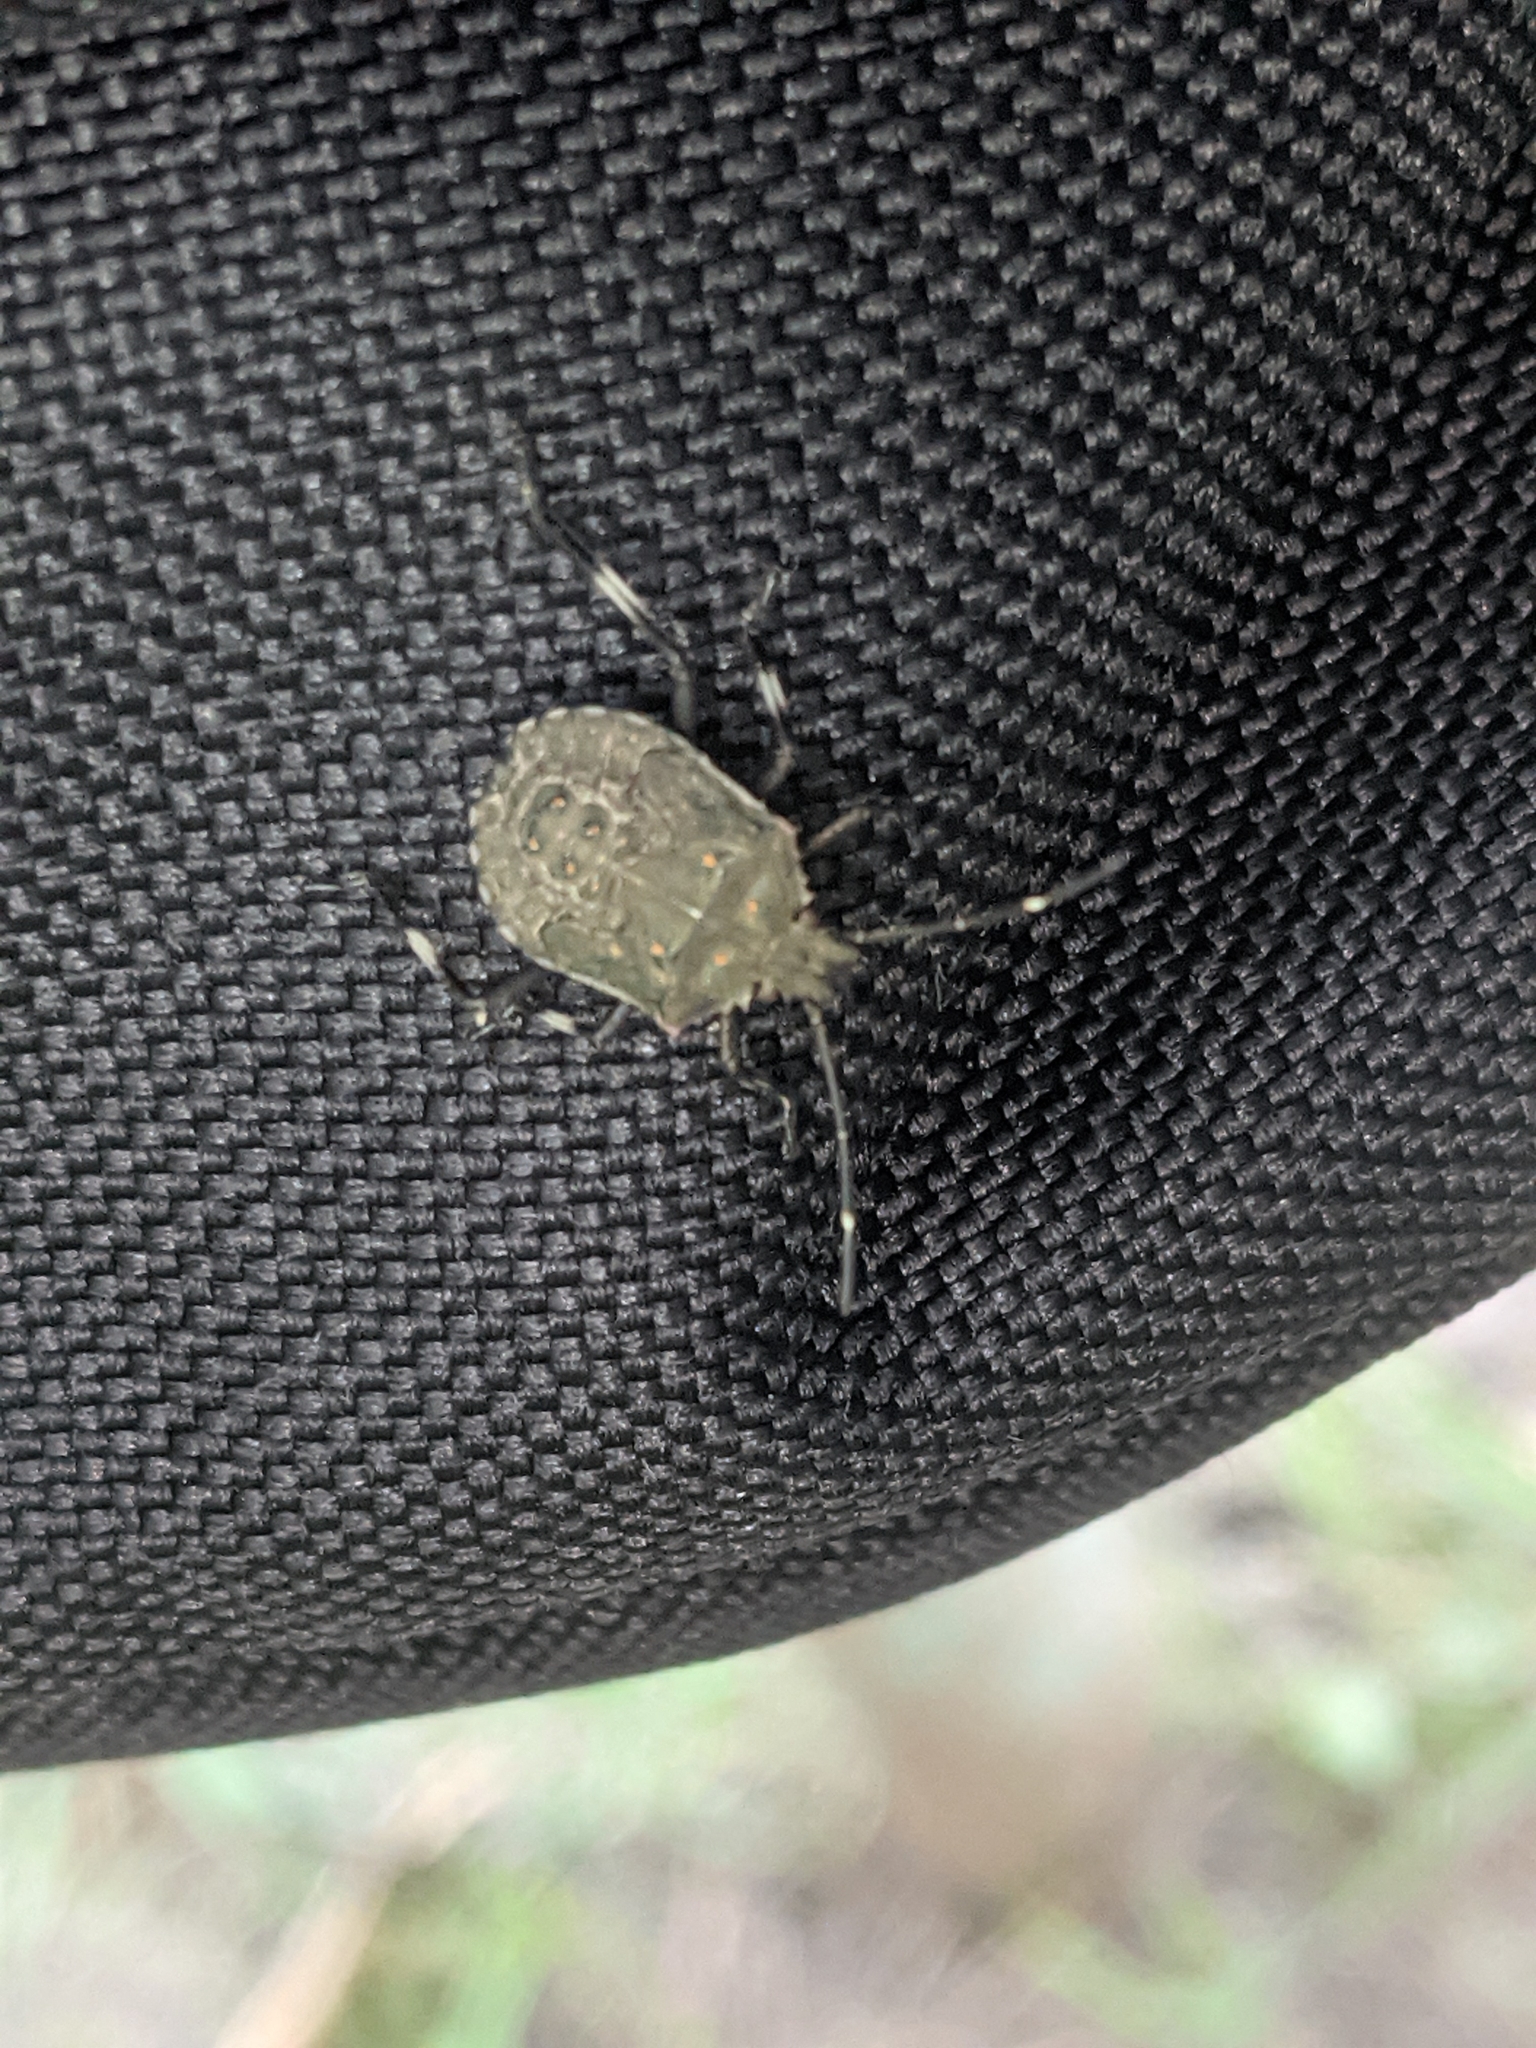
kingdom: Animalia
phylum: Arthropoda
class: Insecta
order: Hemiptera
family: Pentatomidae
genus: Halyomorpha
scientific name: Halyomorpha halys
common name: Brown marmorated stink bug
